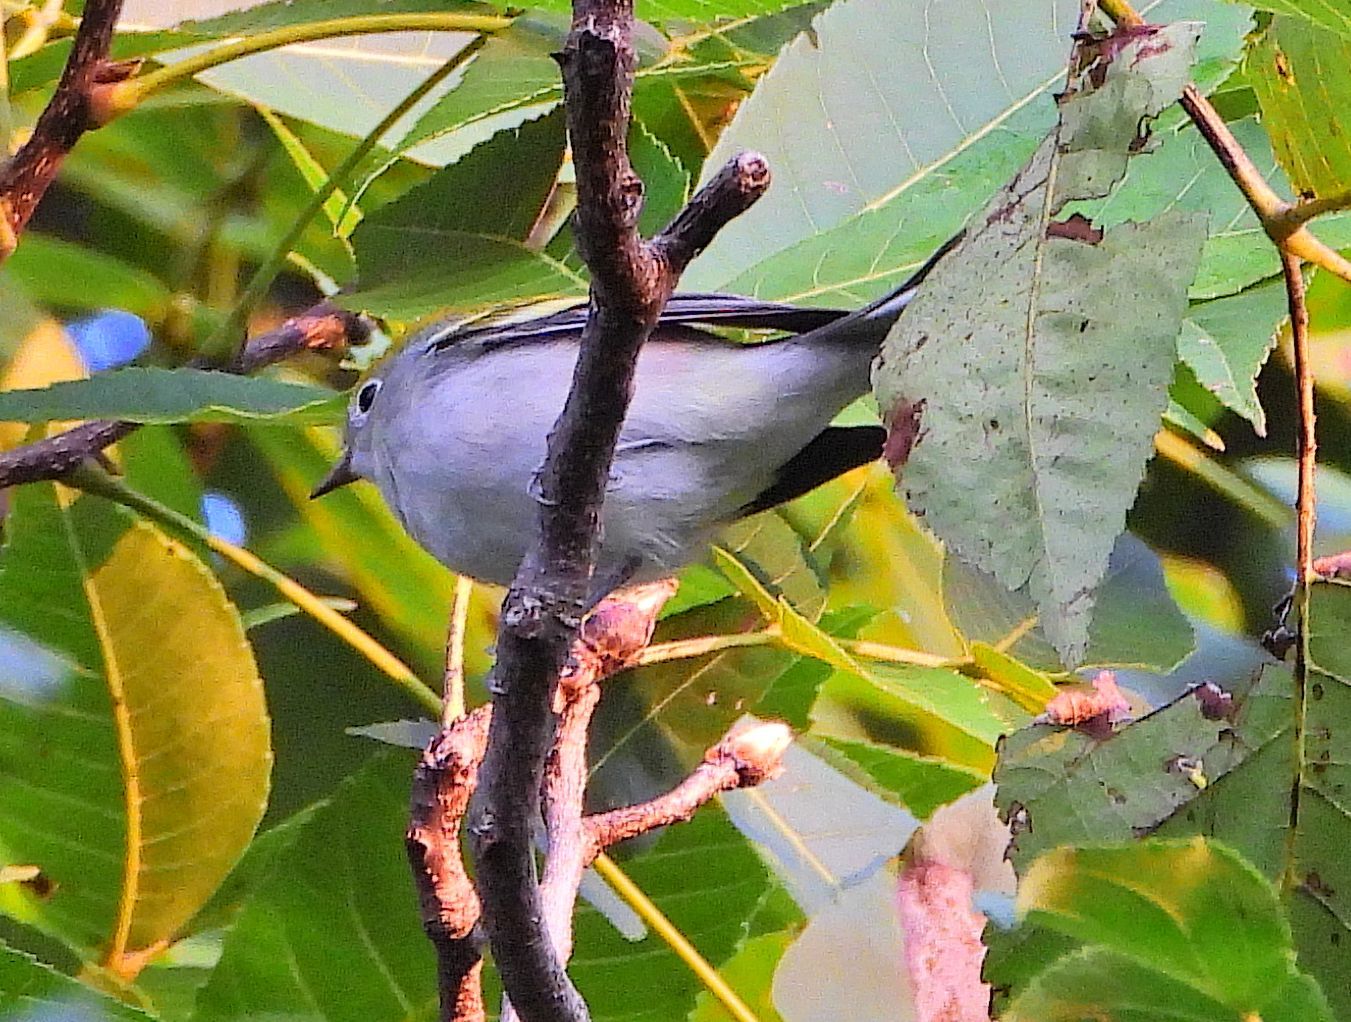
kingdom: Animalia
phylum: Chordata
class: Aves
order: Passeriformes
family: Parulidae
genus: Setophaga
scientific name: Setophaga pensylvanica
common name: Chestnut-sided warbler
